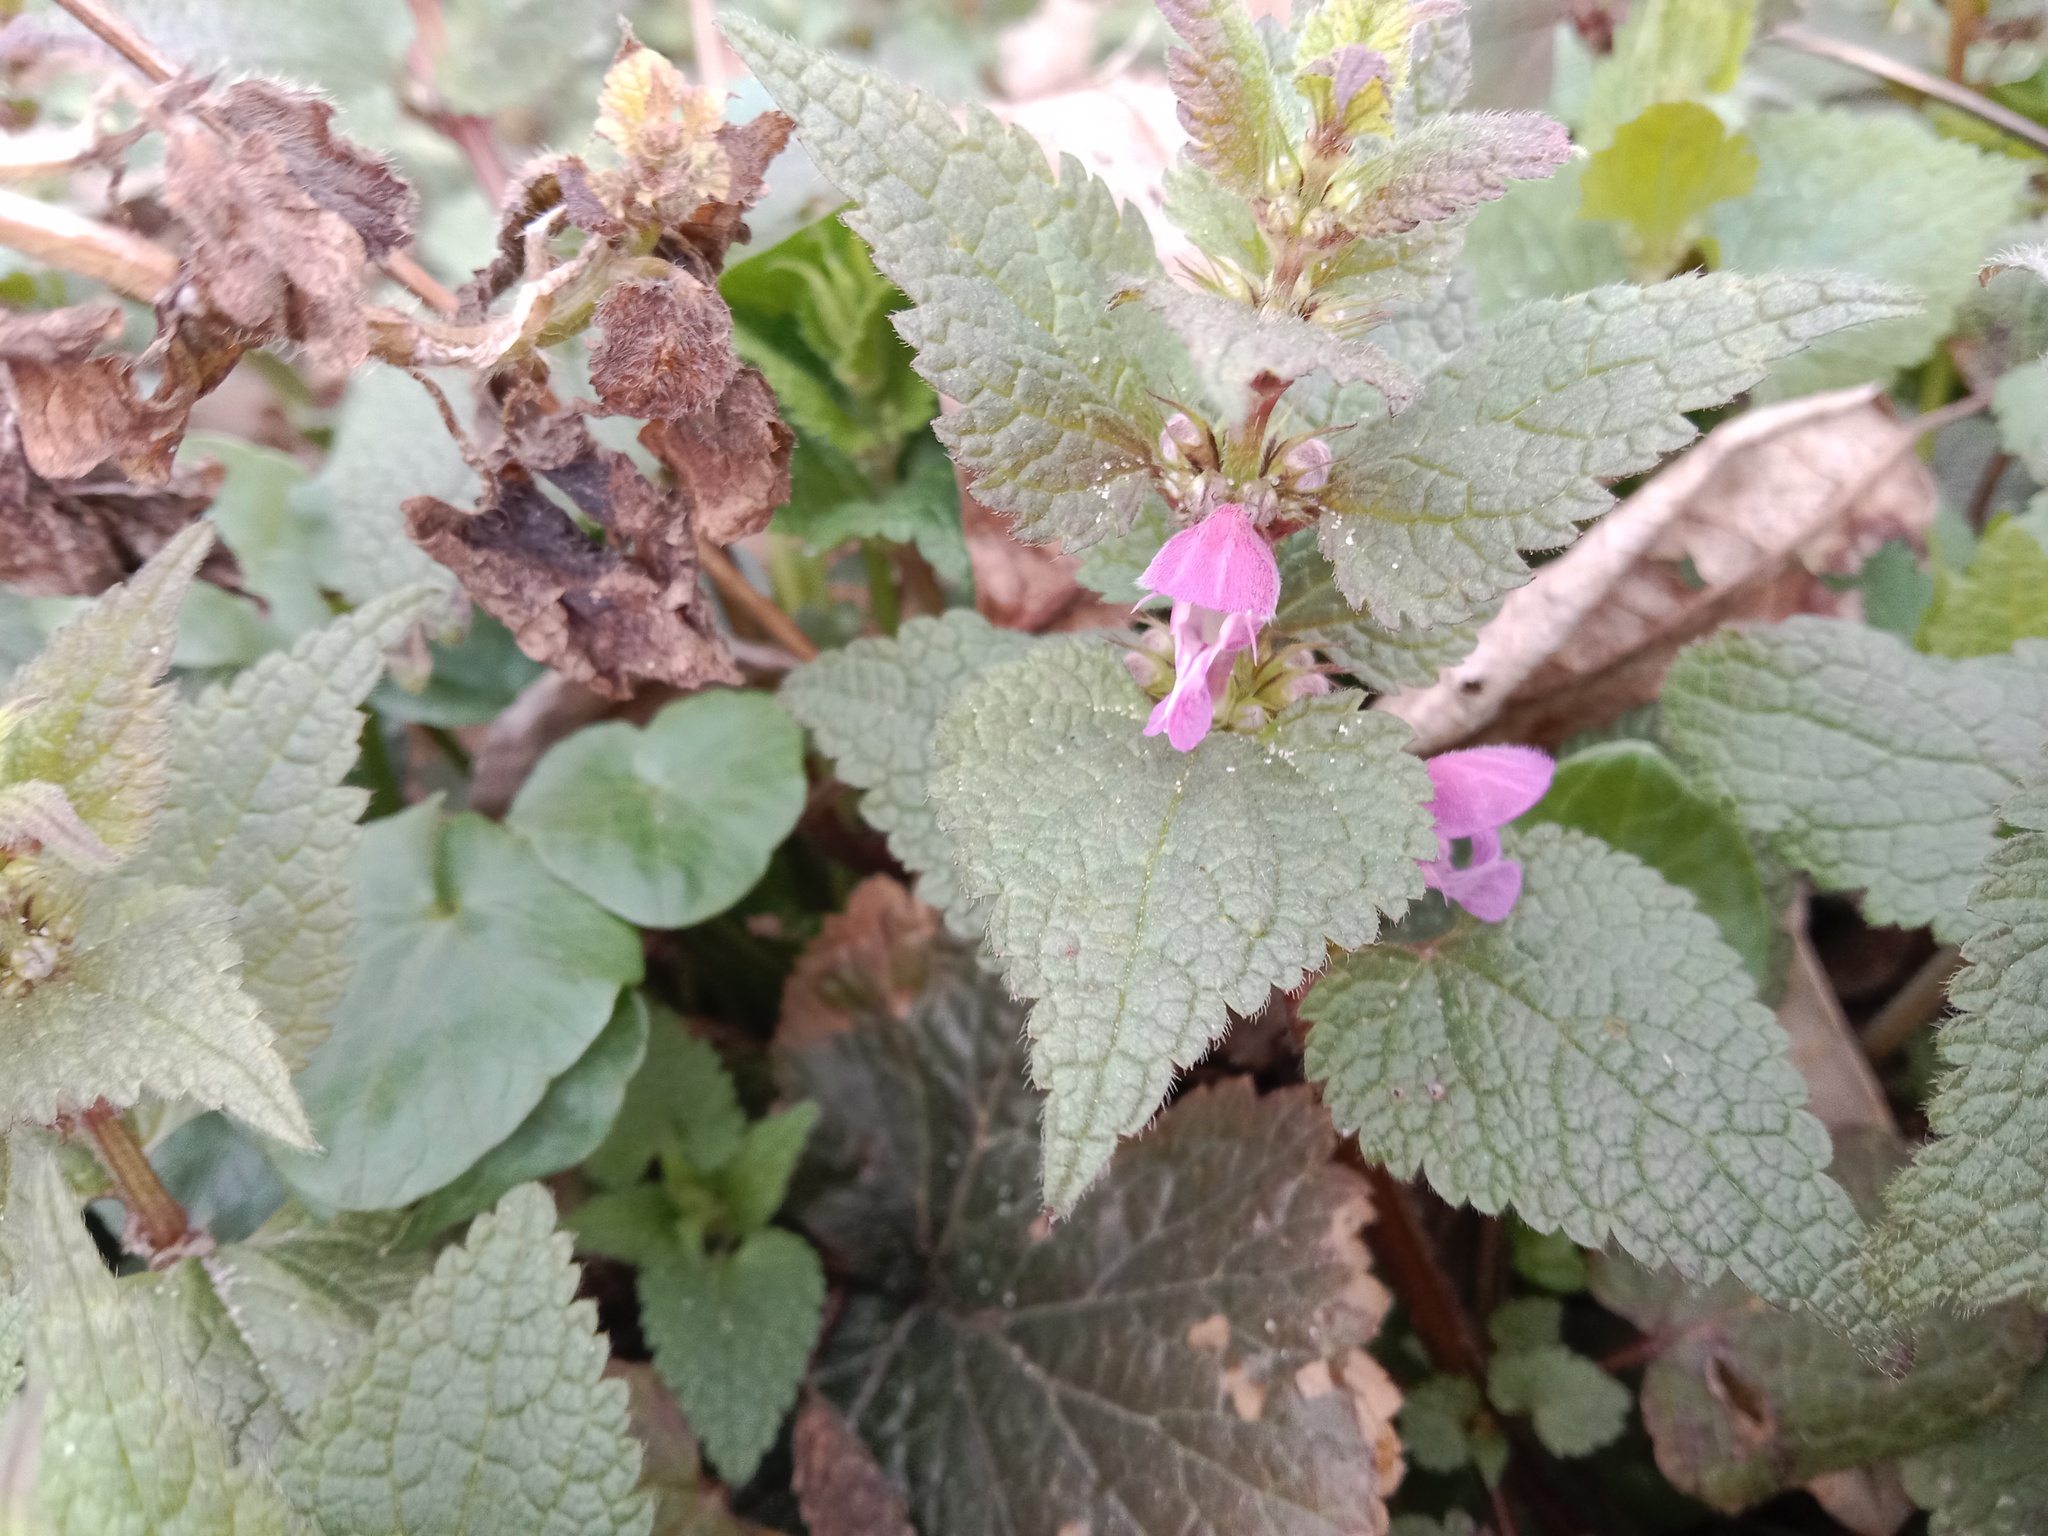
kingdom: Plantae
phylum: Tracheophyta
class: Magnoliopsida
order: Lamiales
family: Lamiaceae
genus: Lamium
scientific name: Lamium maculatum
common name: Spotted dead-nettle
